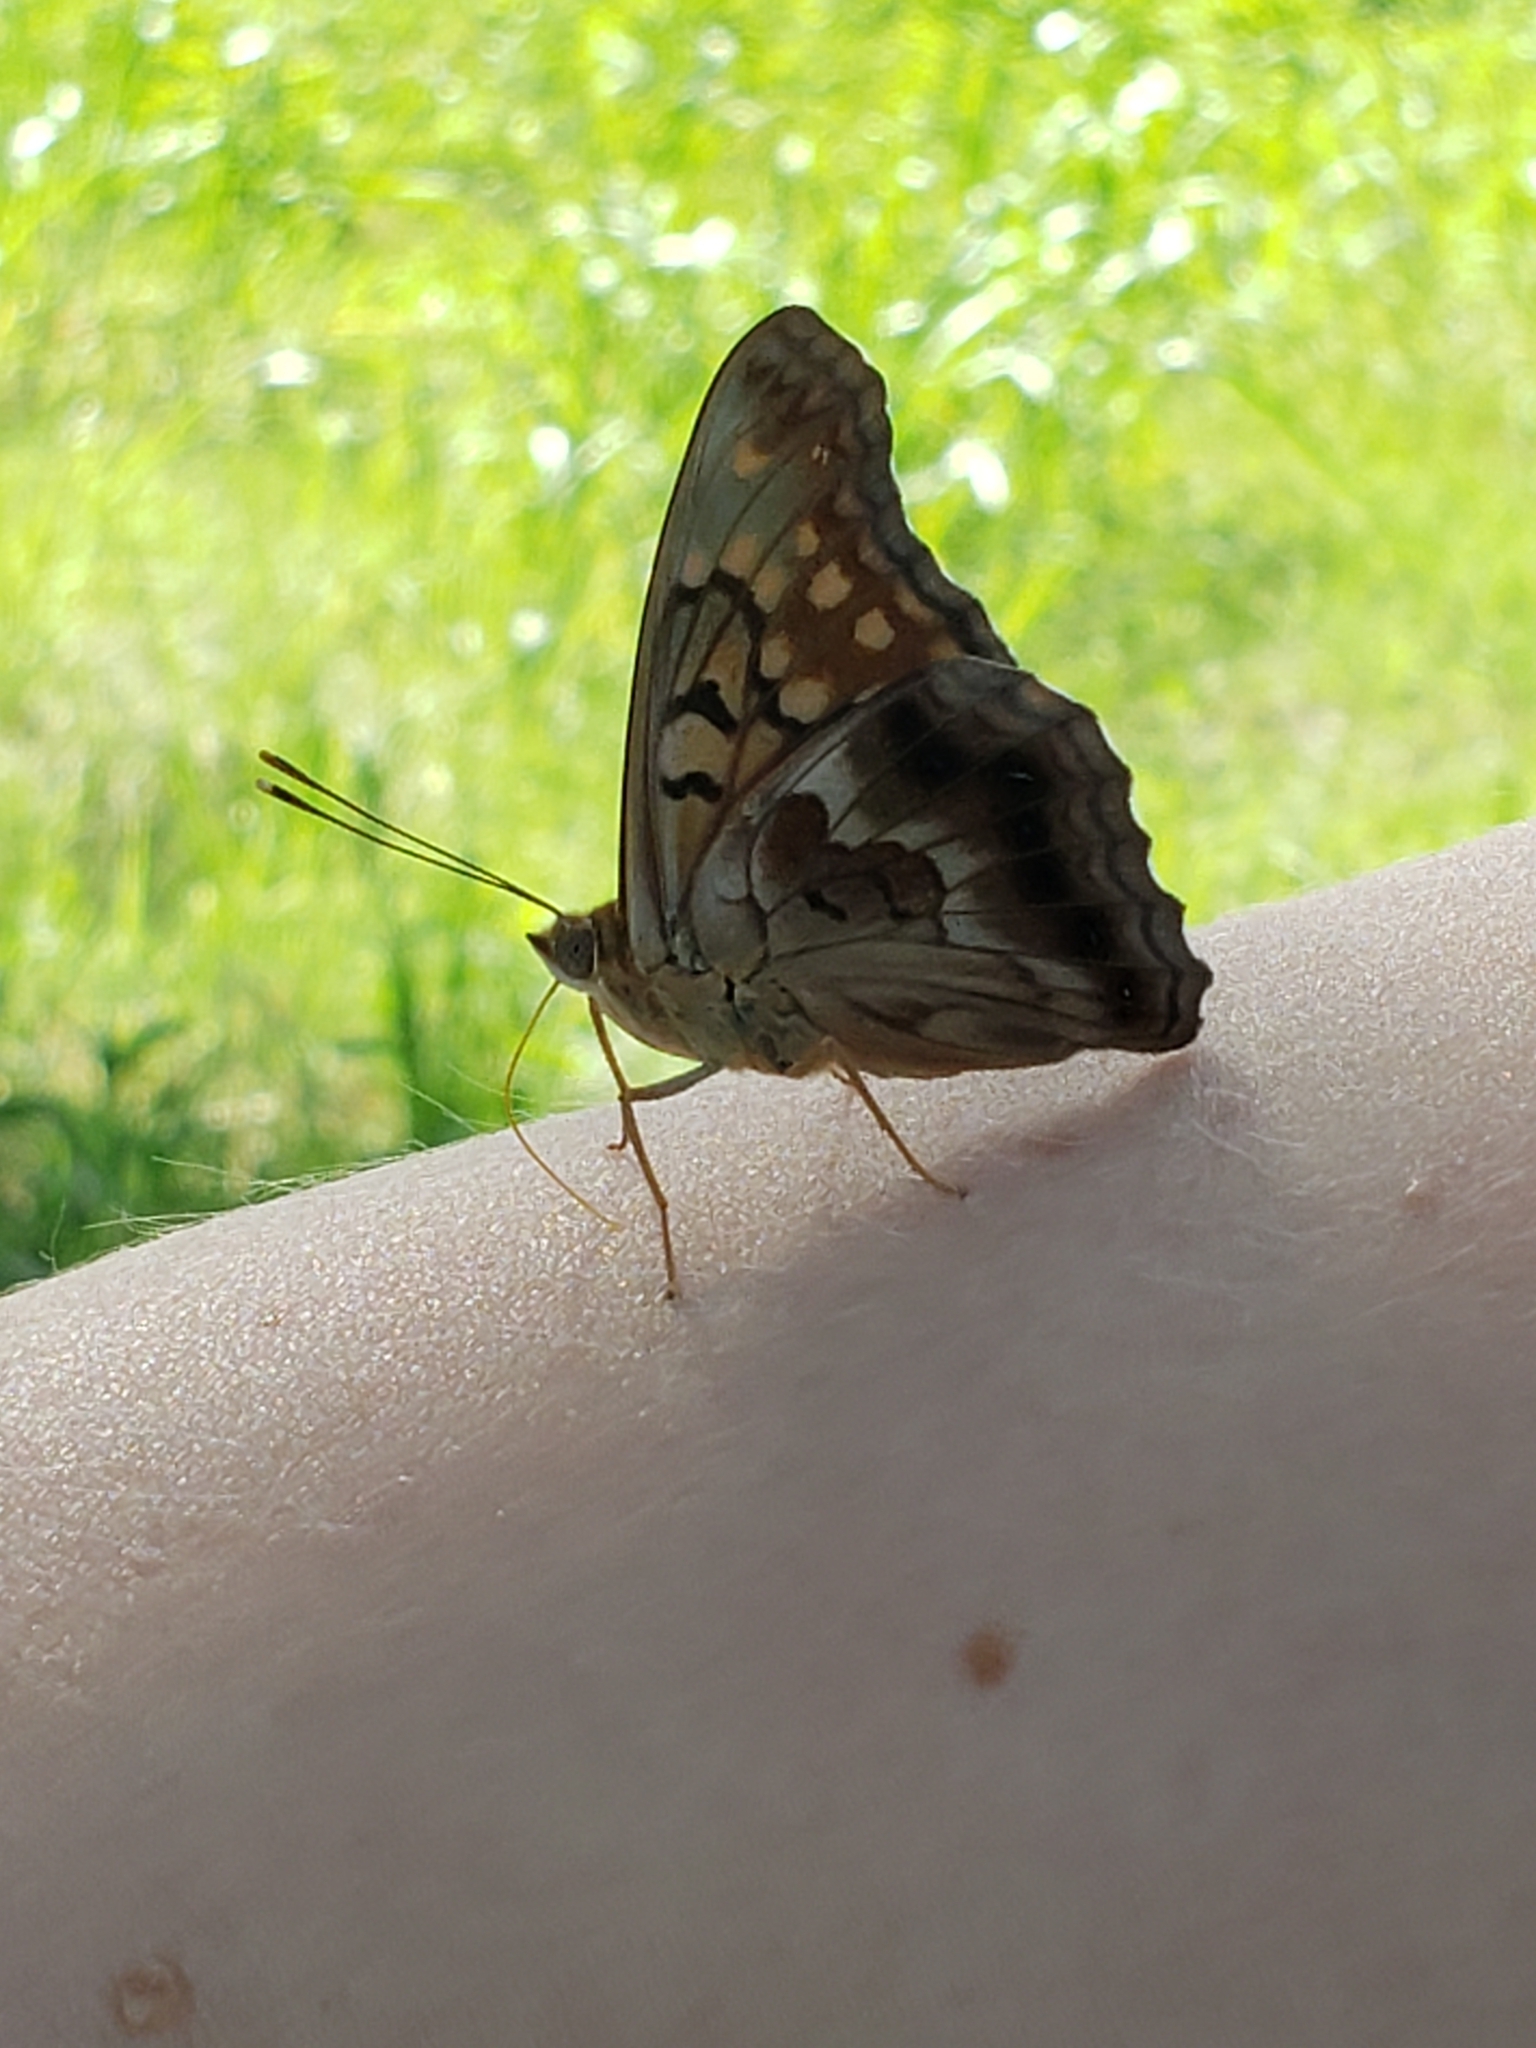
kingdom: Animalia
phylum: Arthropoda
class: Insecta
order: Lepidoptera
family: Nymphalidae
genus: Asterocampa
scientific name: Asterocampa clyton
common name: Tawny emperor
